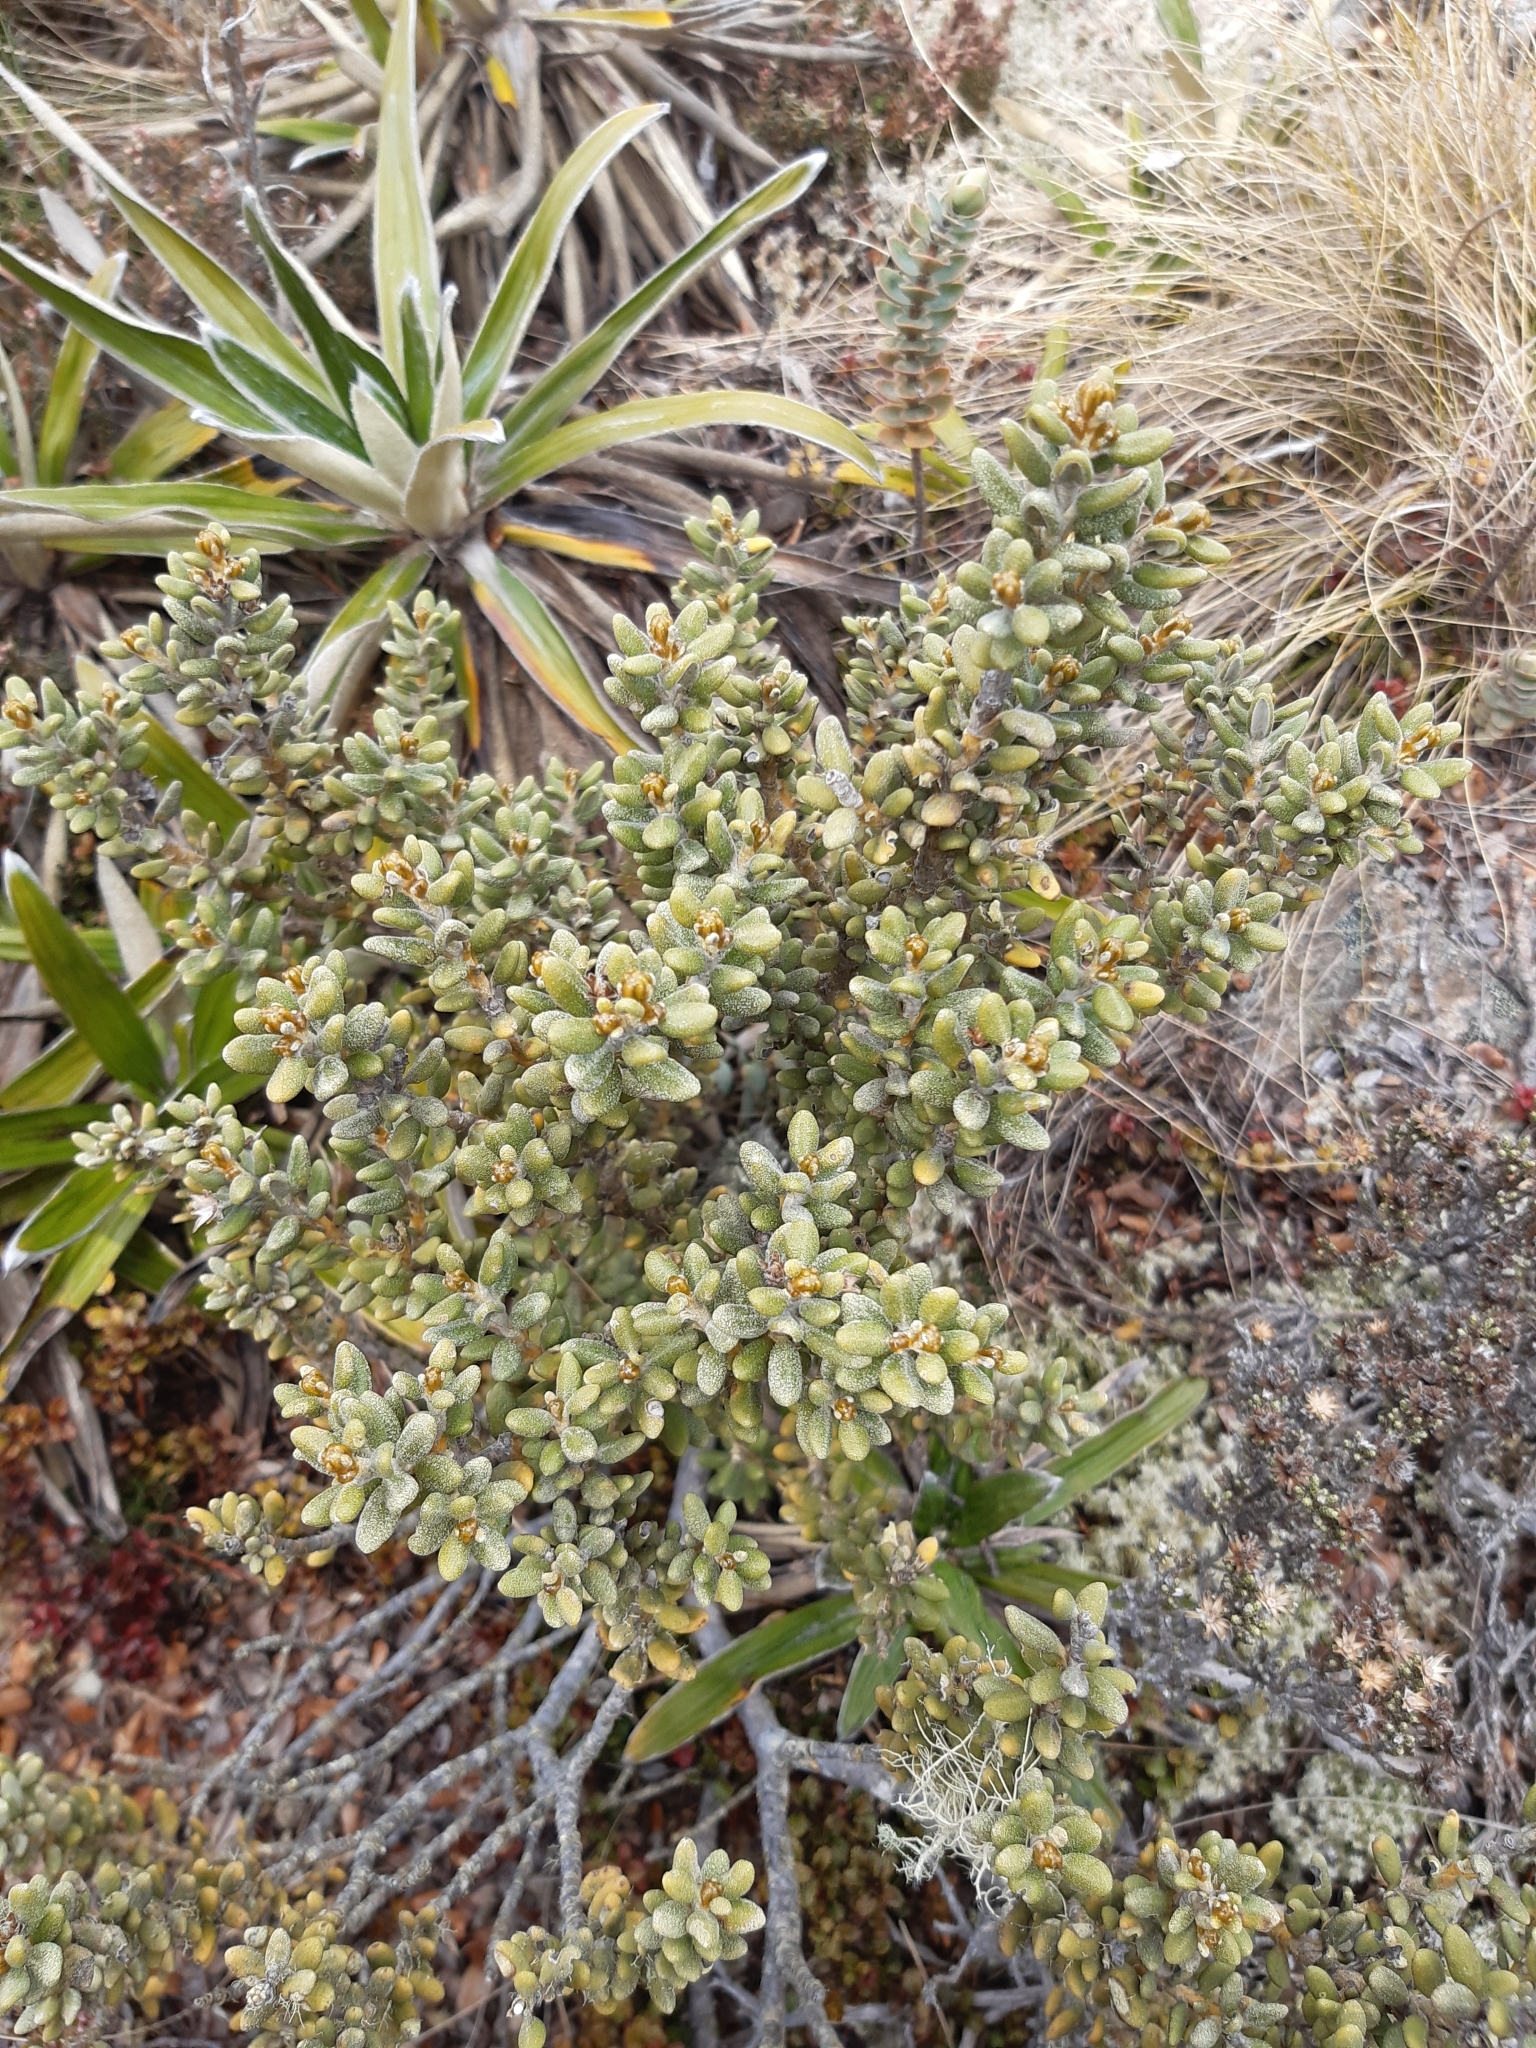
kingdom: Plantae
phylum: Tracheophyta
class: Magnoliopsida
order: Asterales
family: Asteraceae
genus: Olearia
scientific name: Olearia cymbifolia
